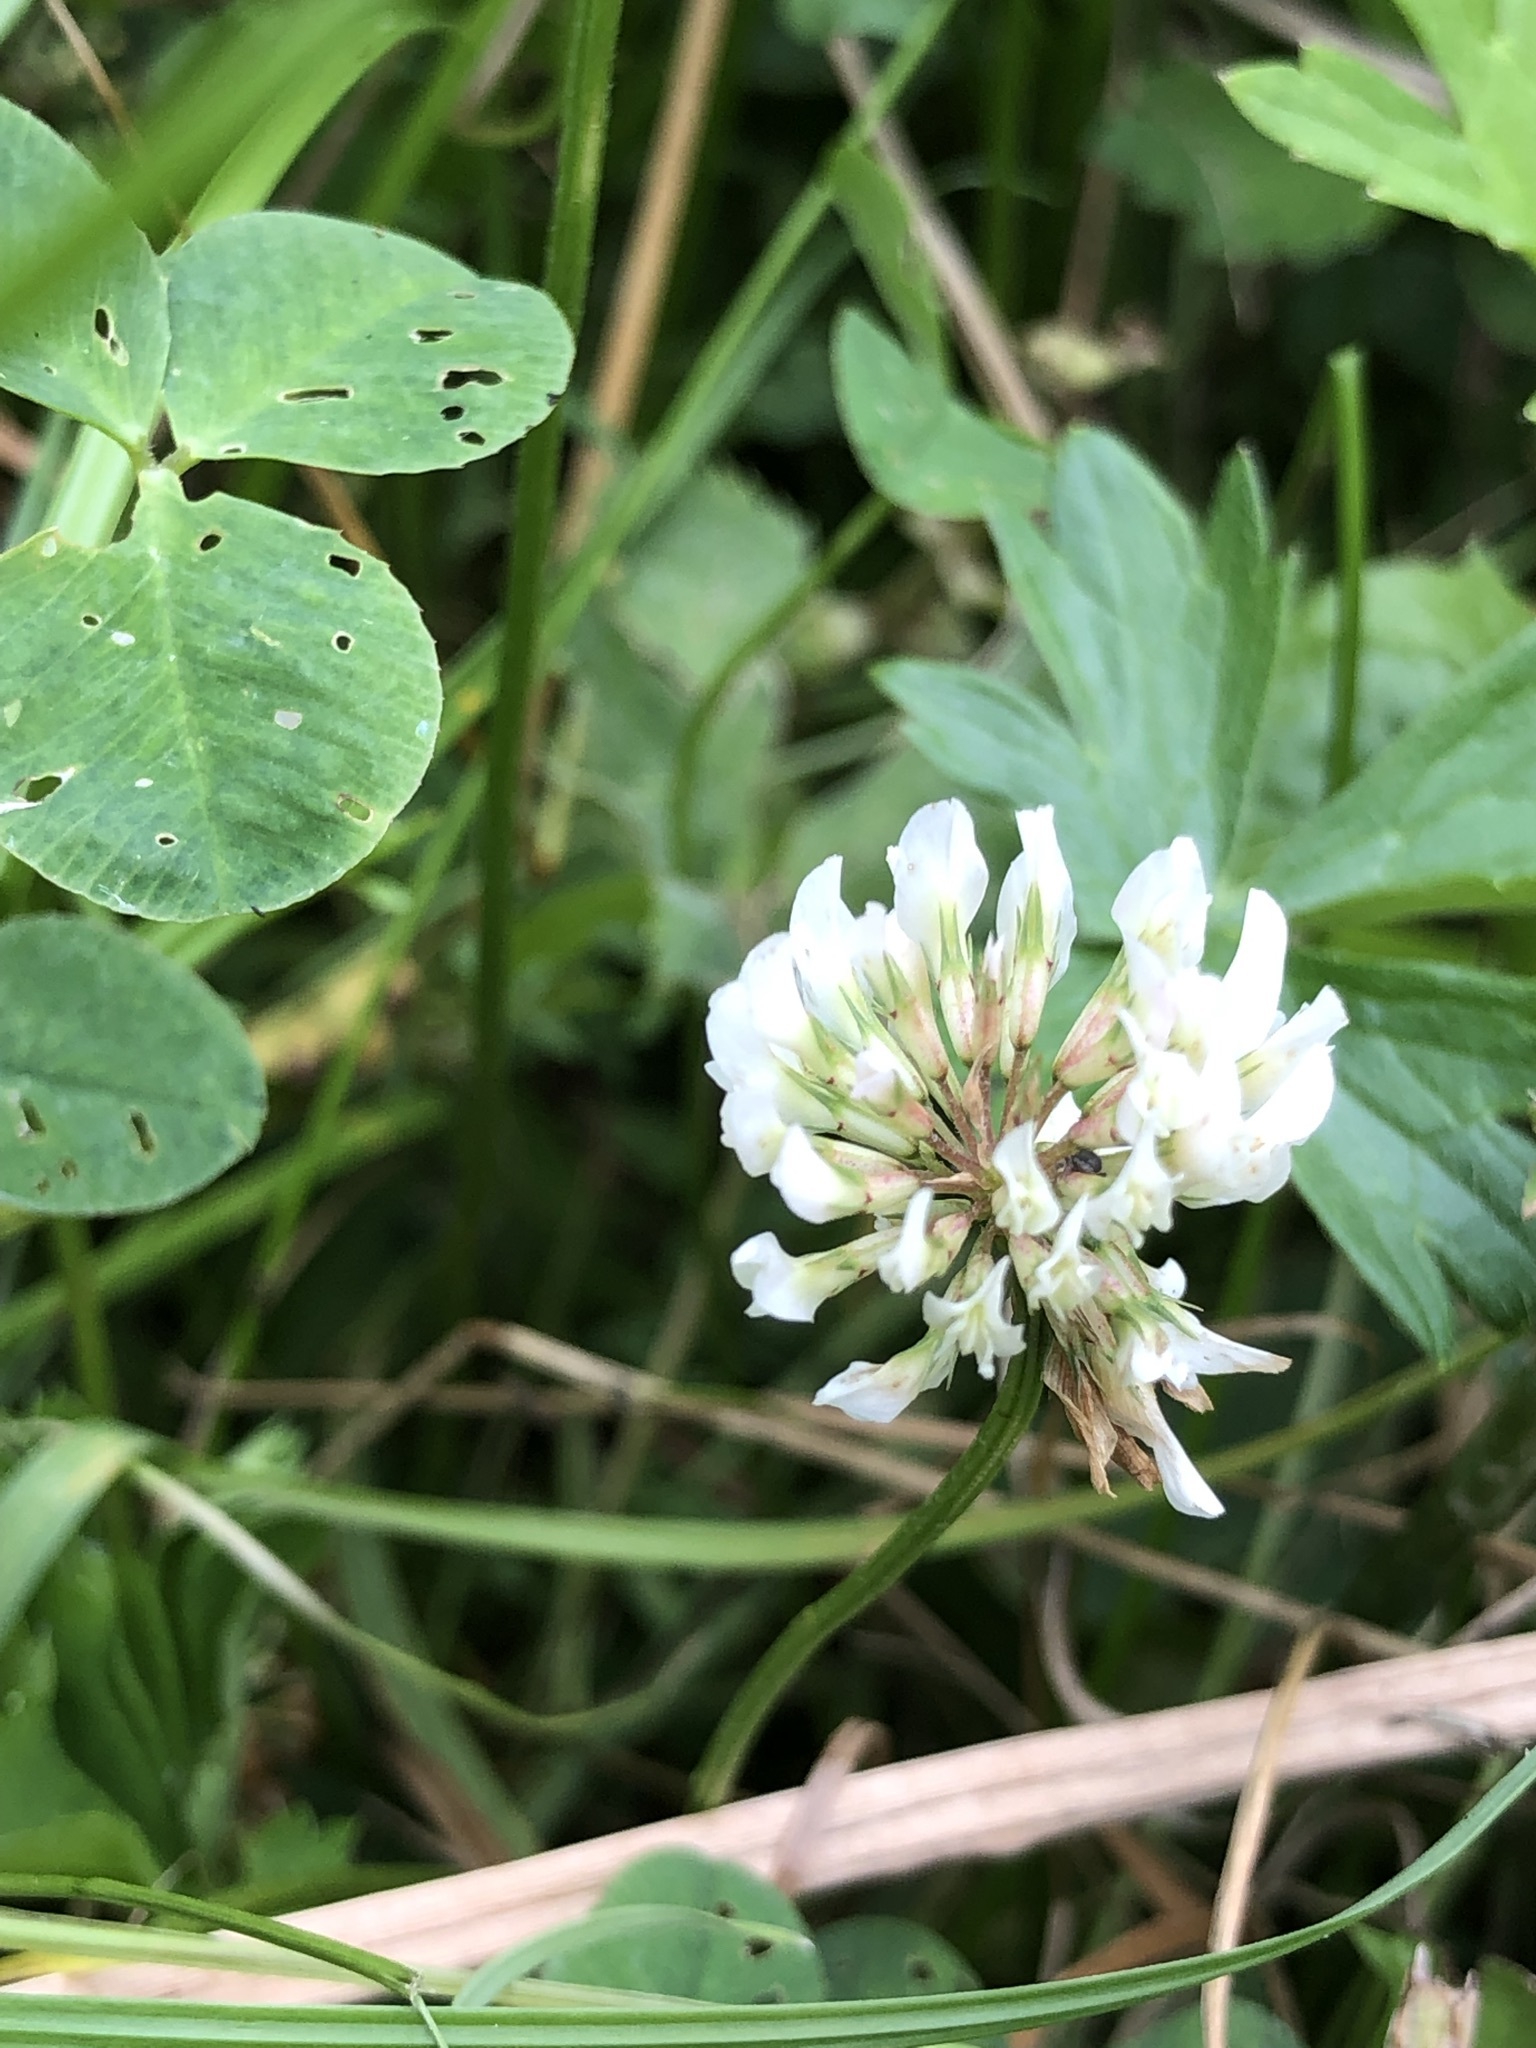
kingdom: Plantae
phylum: Tracheophyta
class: Magnoliopsida
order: Fabales
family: Fabaceae
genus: Trifolium
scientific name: Trifolium repens
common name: White clover
